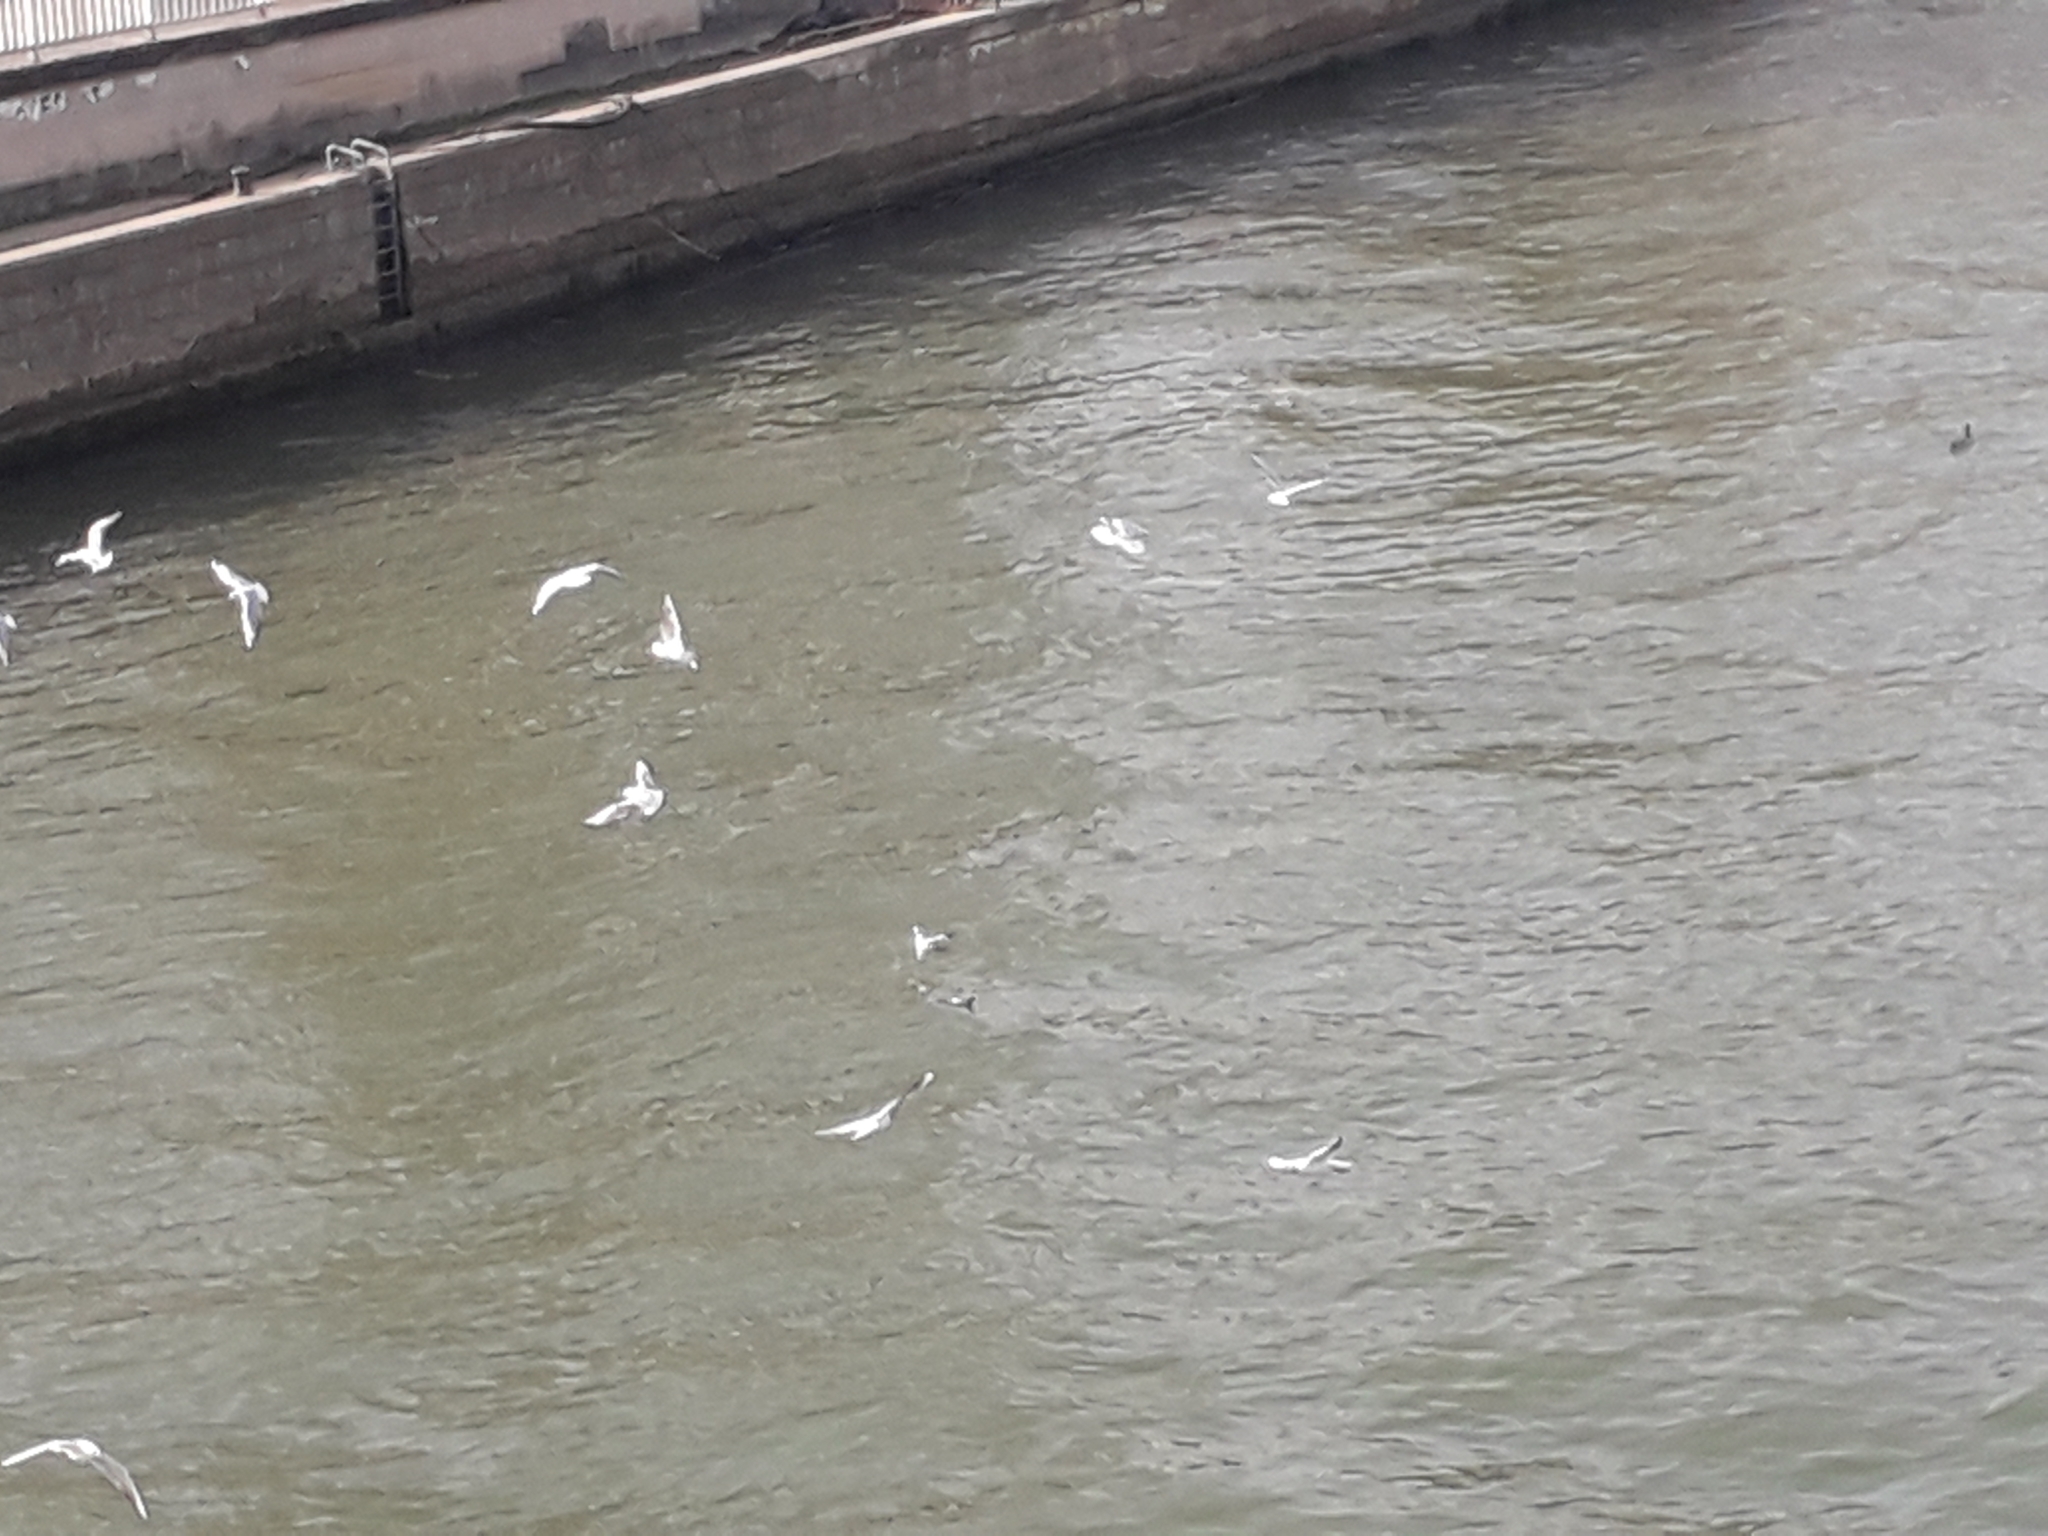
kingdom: Animalia
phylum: Chordata
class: Aves
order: Charadriiformes
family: Laridae
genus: Chroicocephalus
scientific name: Chroicocephalus ridibundus
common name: Black-headed gull
